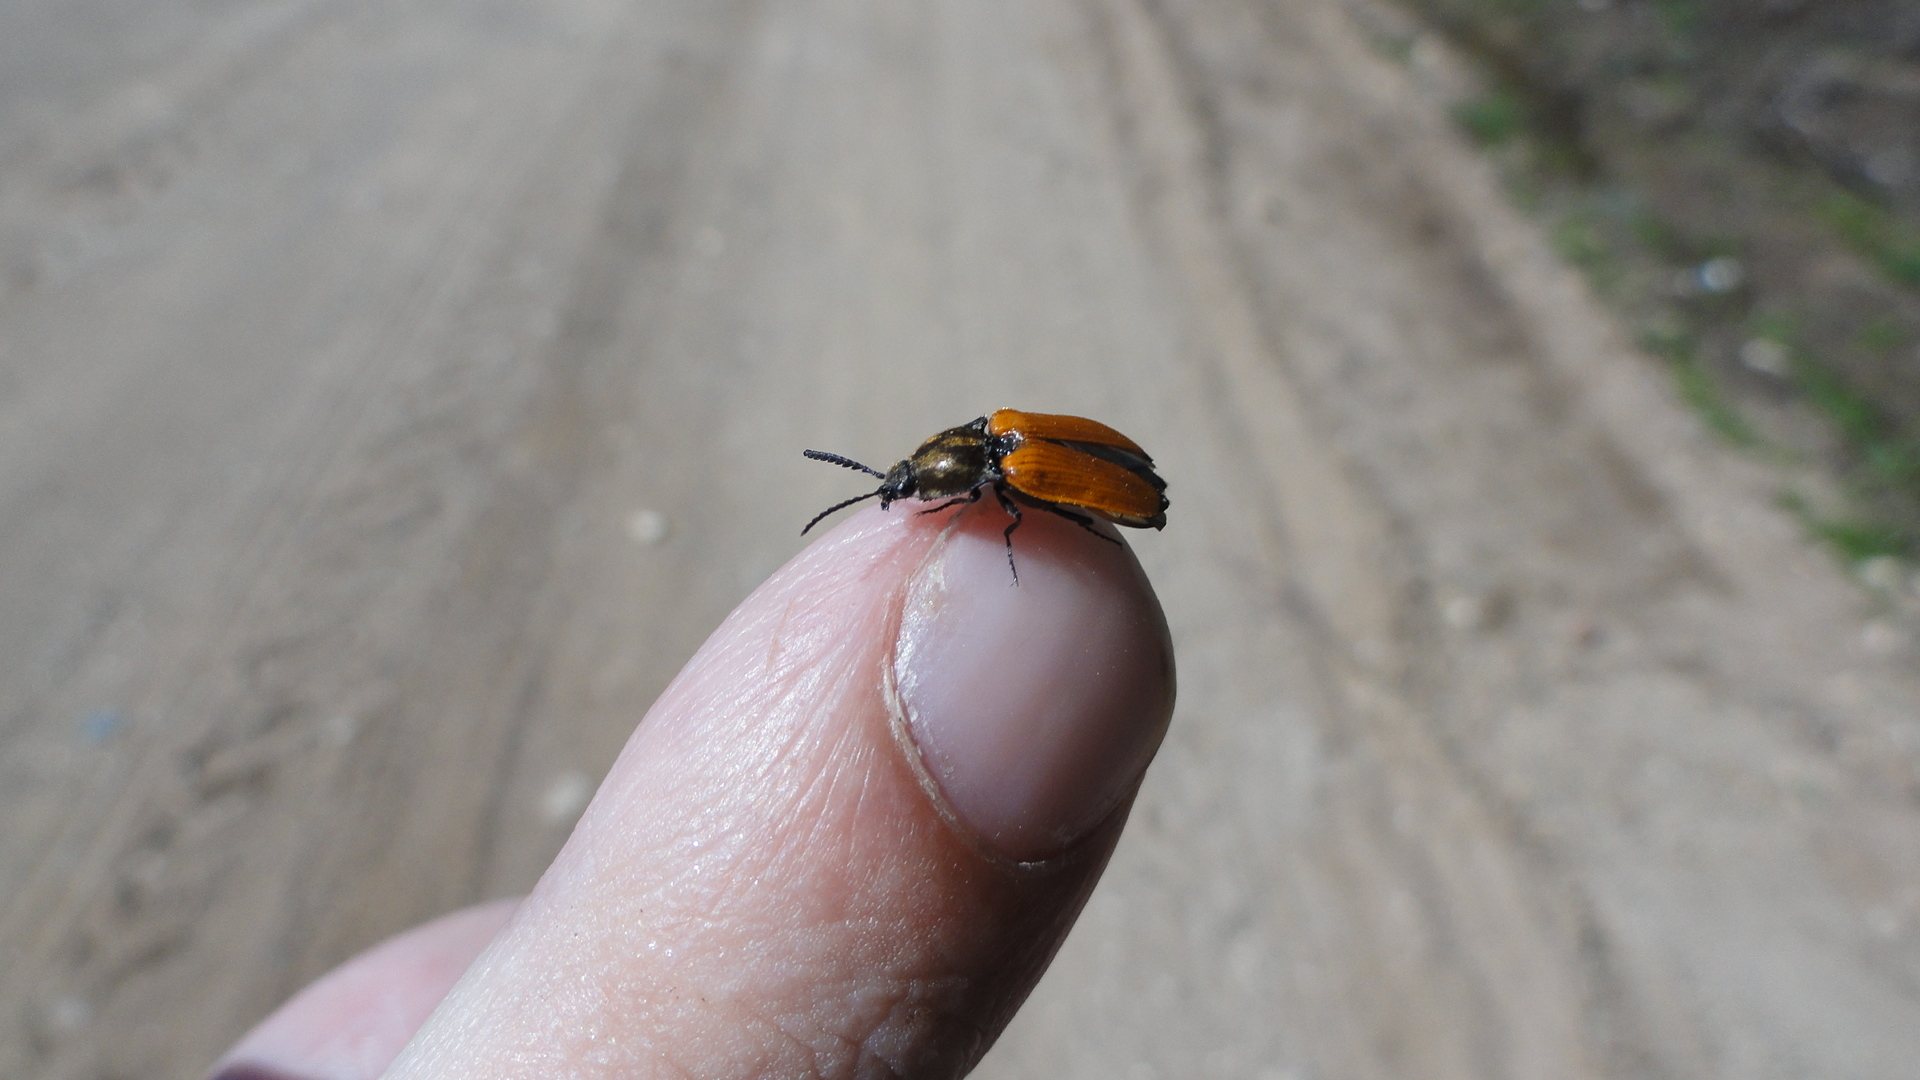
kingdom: Animalia
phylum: Arthropoda
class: Insecta
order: Coleoptera
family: Elateridae
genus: Anostirus
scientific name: Anostirus castaneus
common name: Chestnut coloured click beetle
